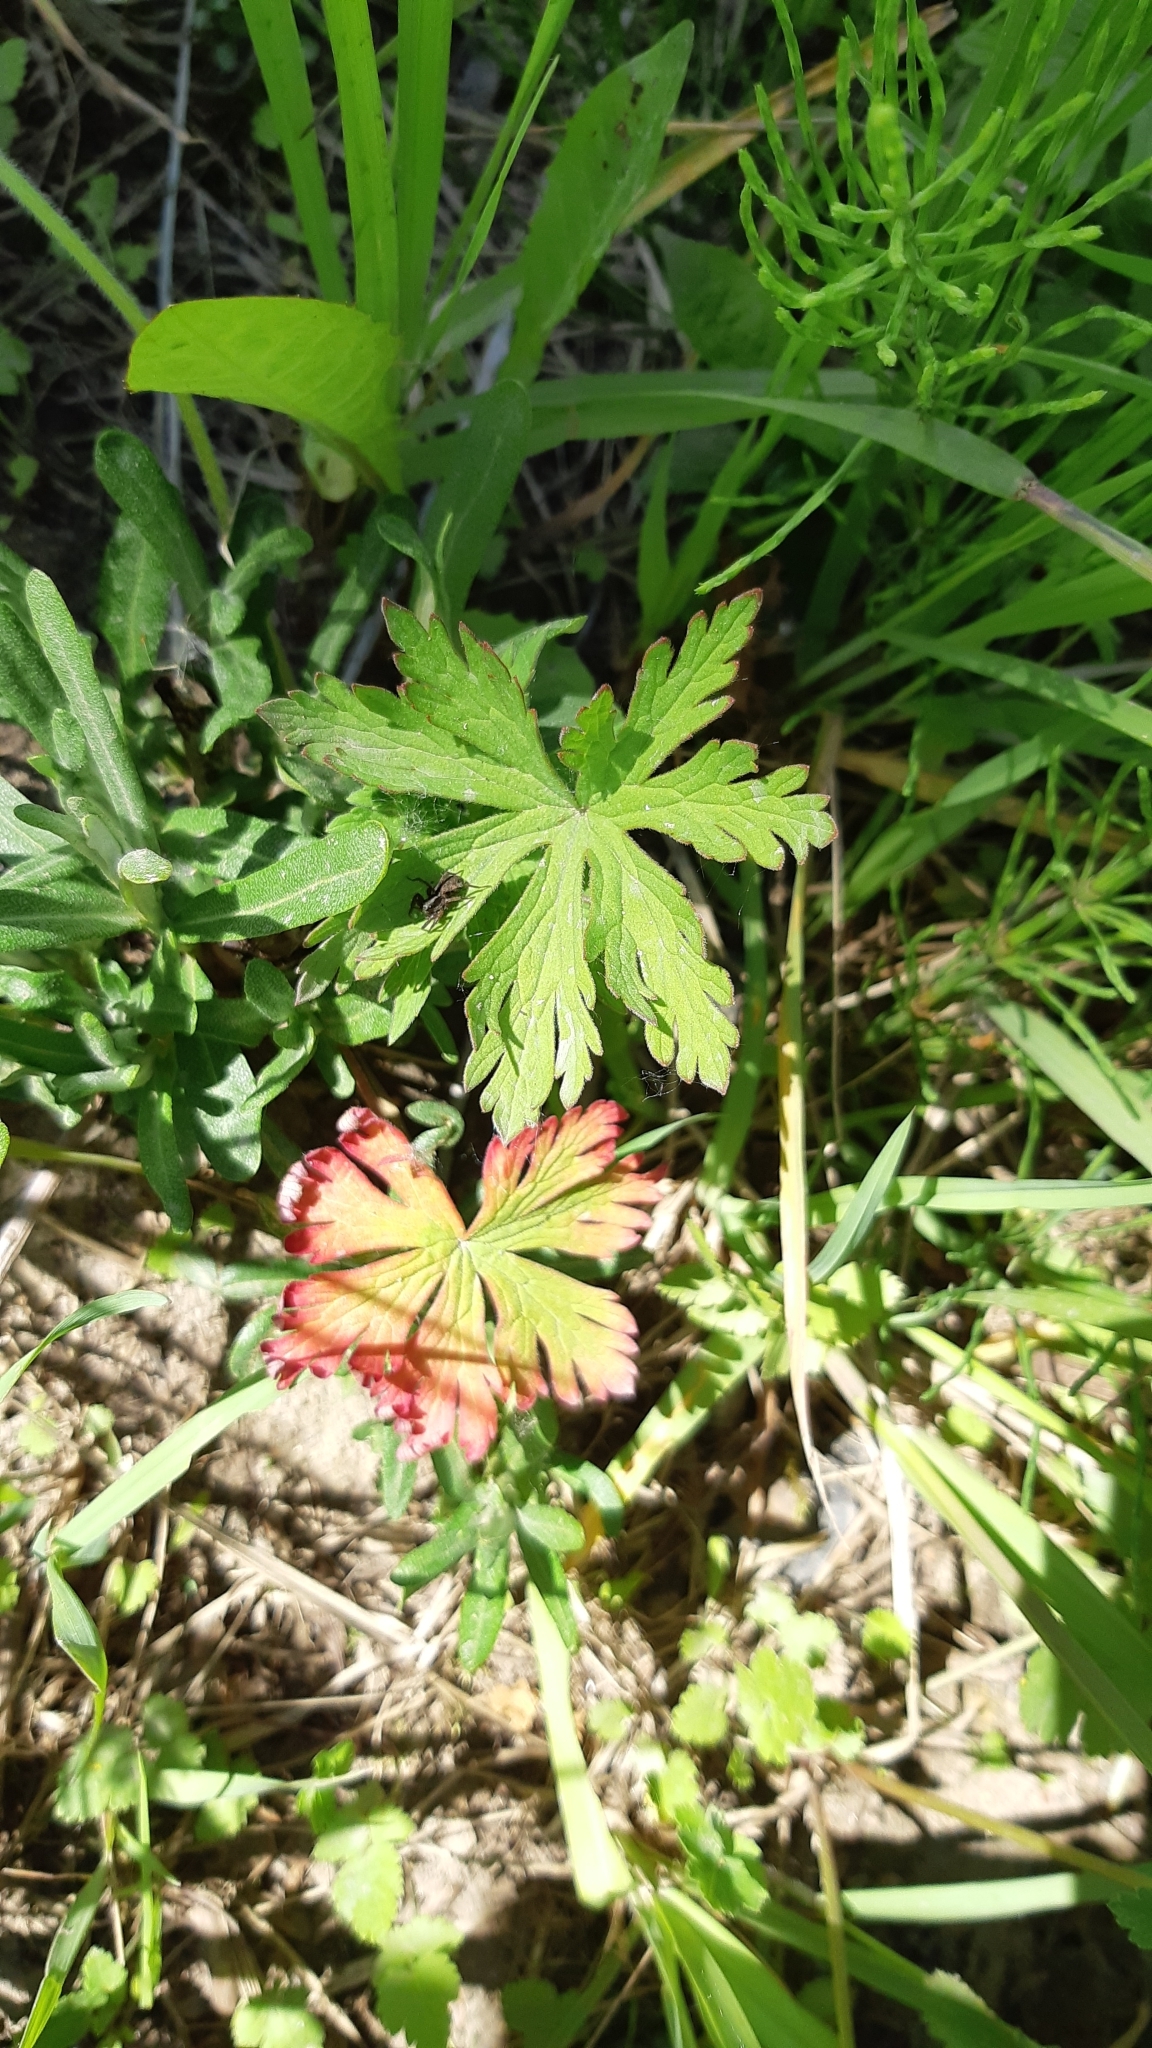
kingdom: Plantae
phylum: Tracheophyta
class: Magnoliopsida
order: Geraniales
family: Geraniaceae
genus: Geranium
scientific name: Geranium pratense
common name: Meadow crane's-bill
